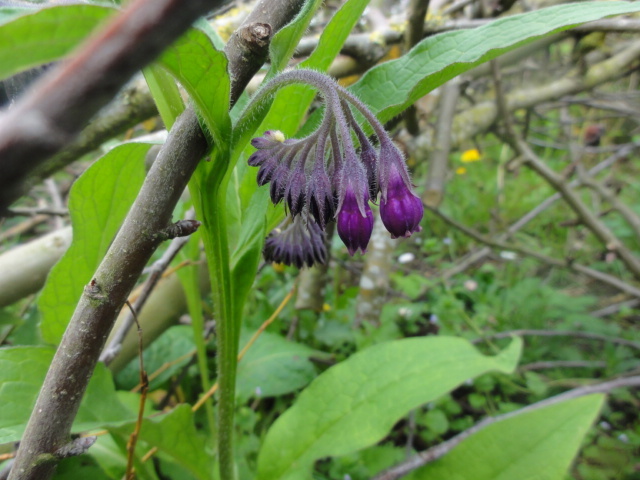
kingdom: Plantae
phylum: Tracheophyta
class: Magnoliopsida
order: Boraginales
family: Boraginaceae
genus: Symphytum
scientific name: Symphytum officinale
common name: Common comfrey
